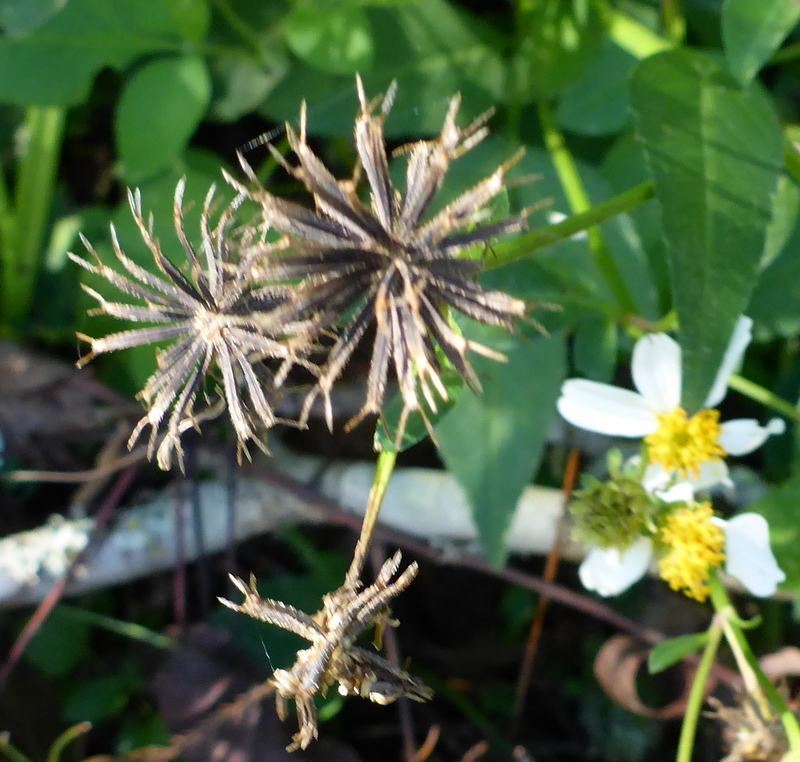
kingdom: Plantae
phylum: Tracheophyta
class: Magnoliopsida
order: Asterales
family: Asteraceae
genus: Bidens
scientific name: Bidens alba
